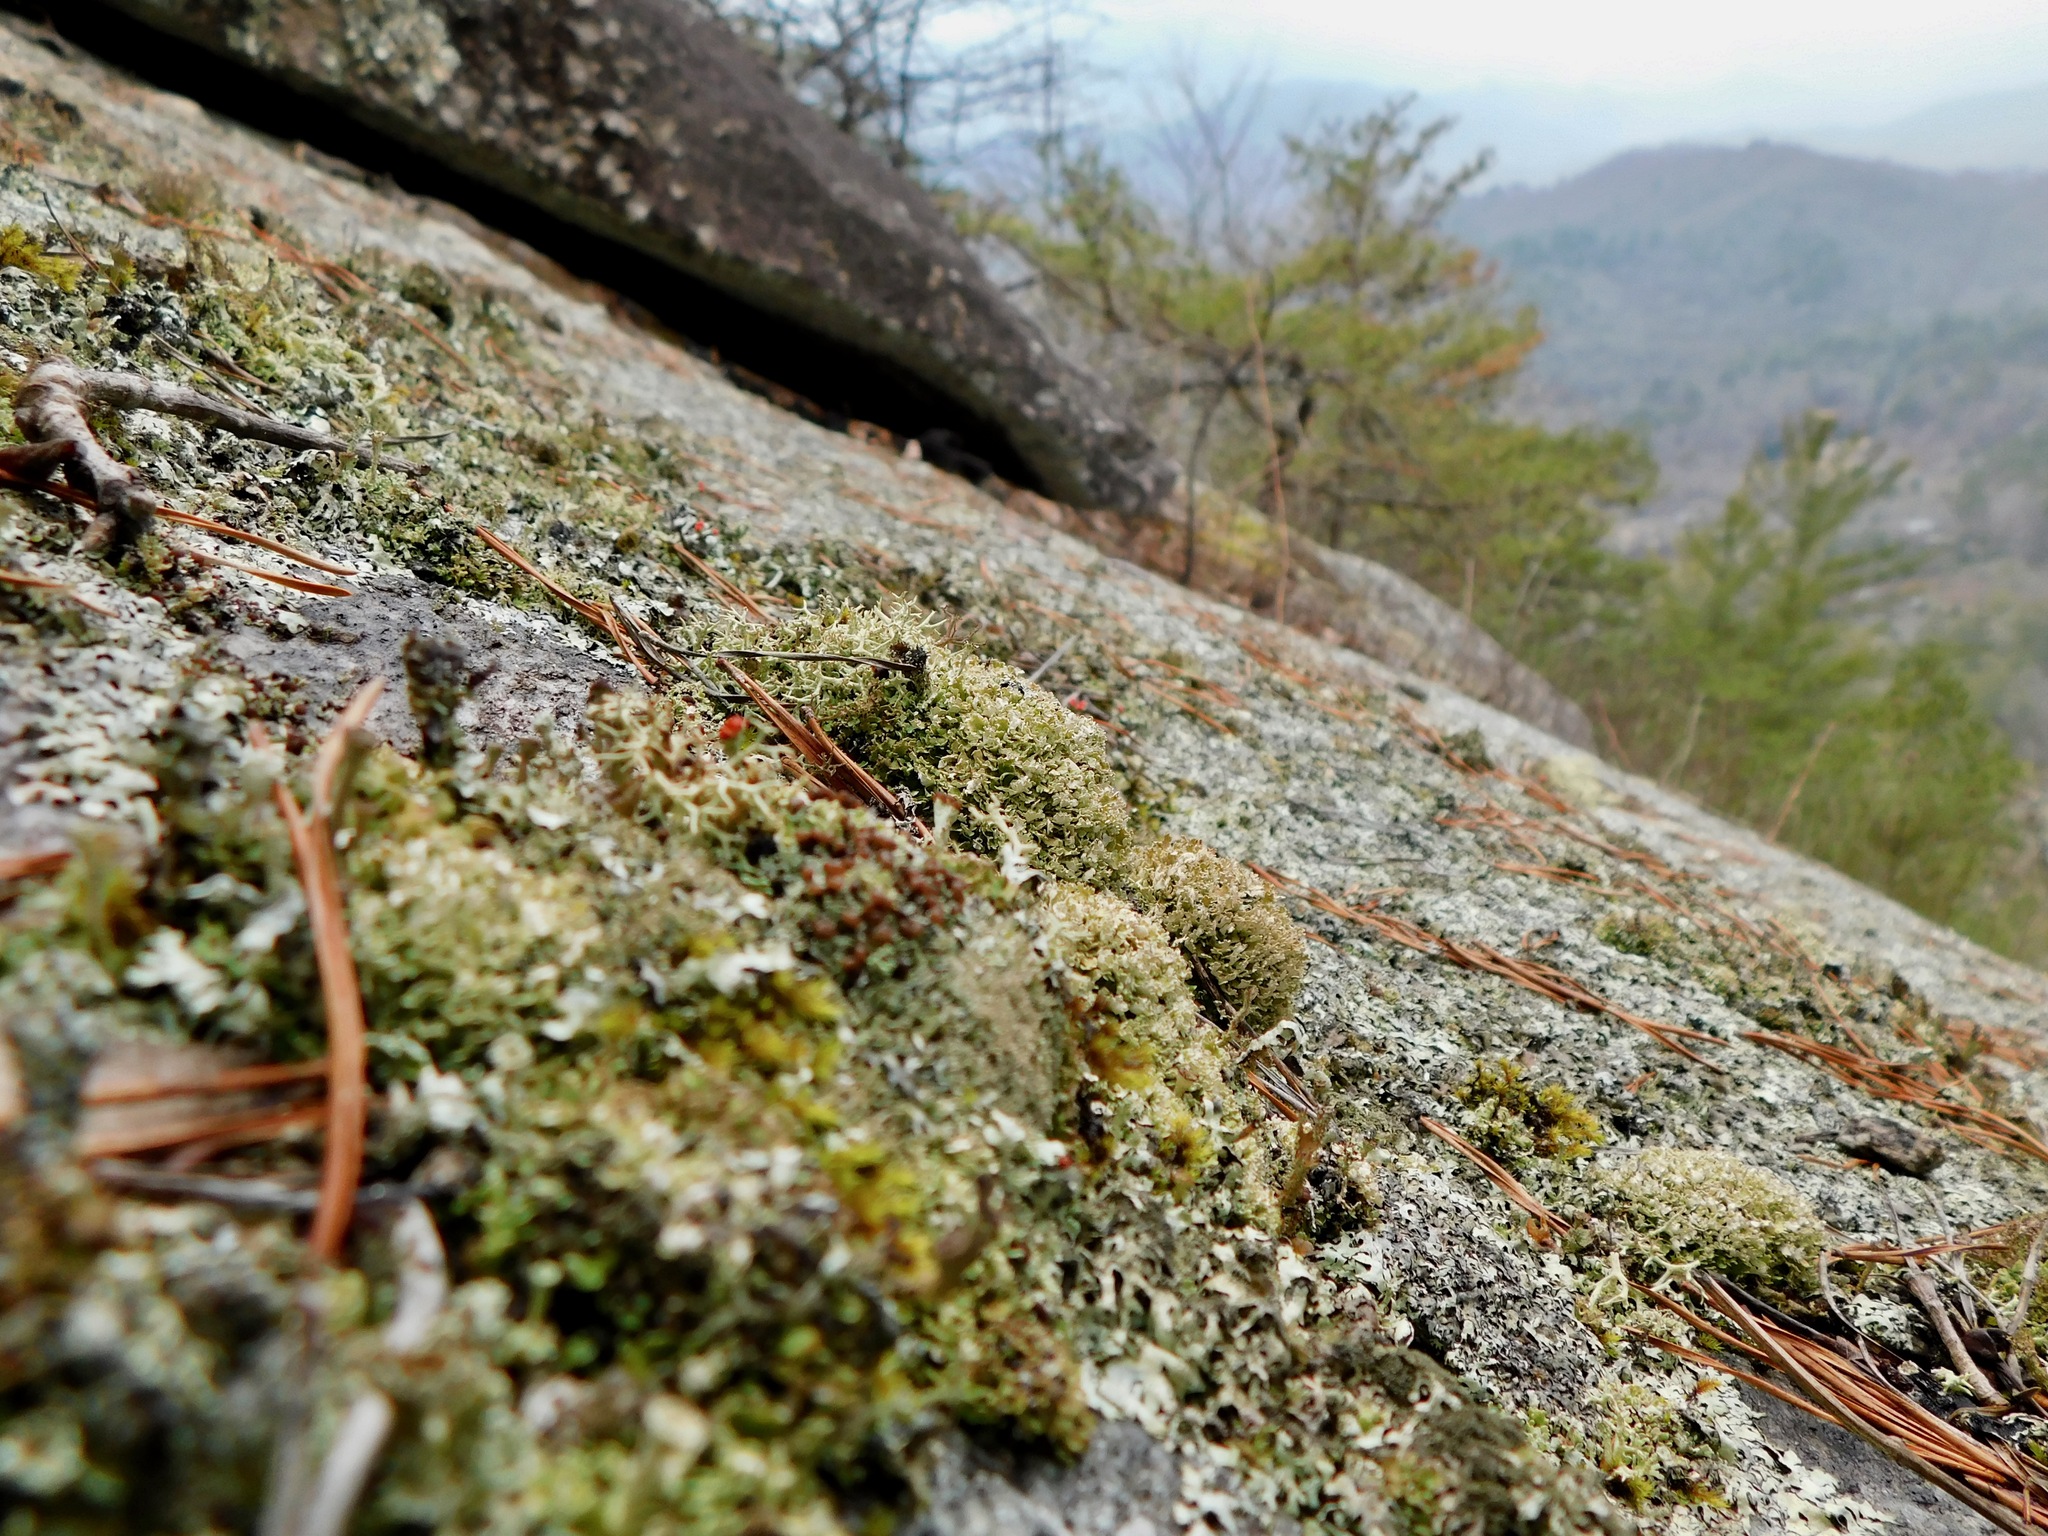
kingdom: Fungi
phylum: Ascomycota
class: Lecanoromycetes
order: Lecanorales
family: Cladoniaceae
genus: Cladonia
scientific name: Cladonia strepsilis
